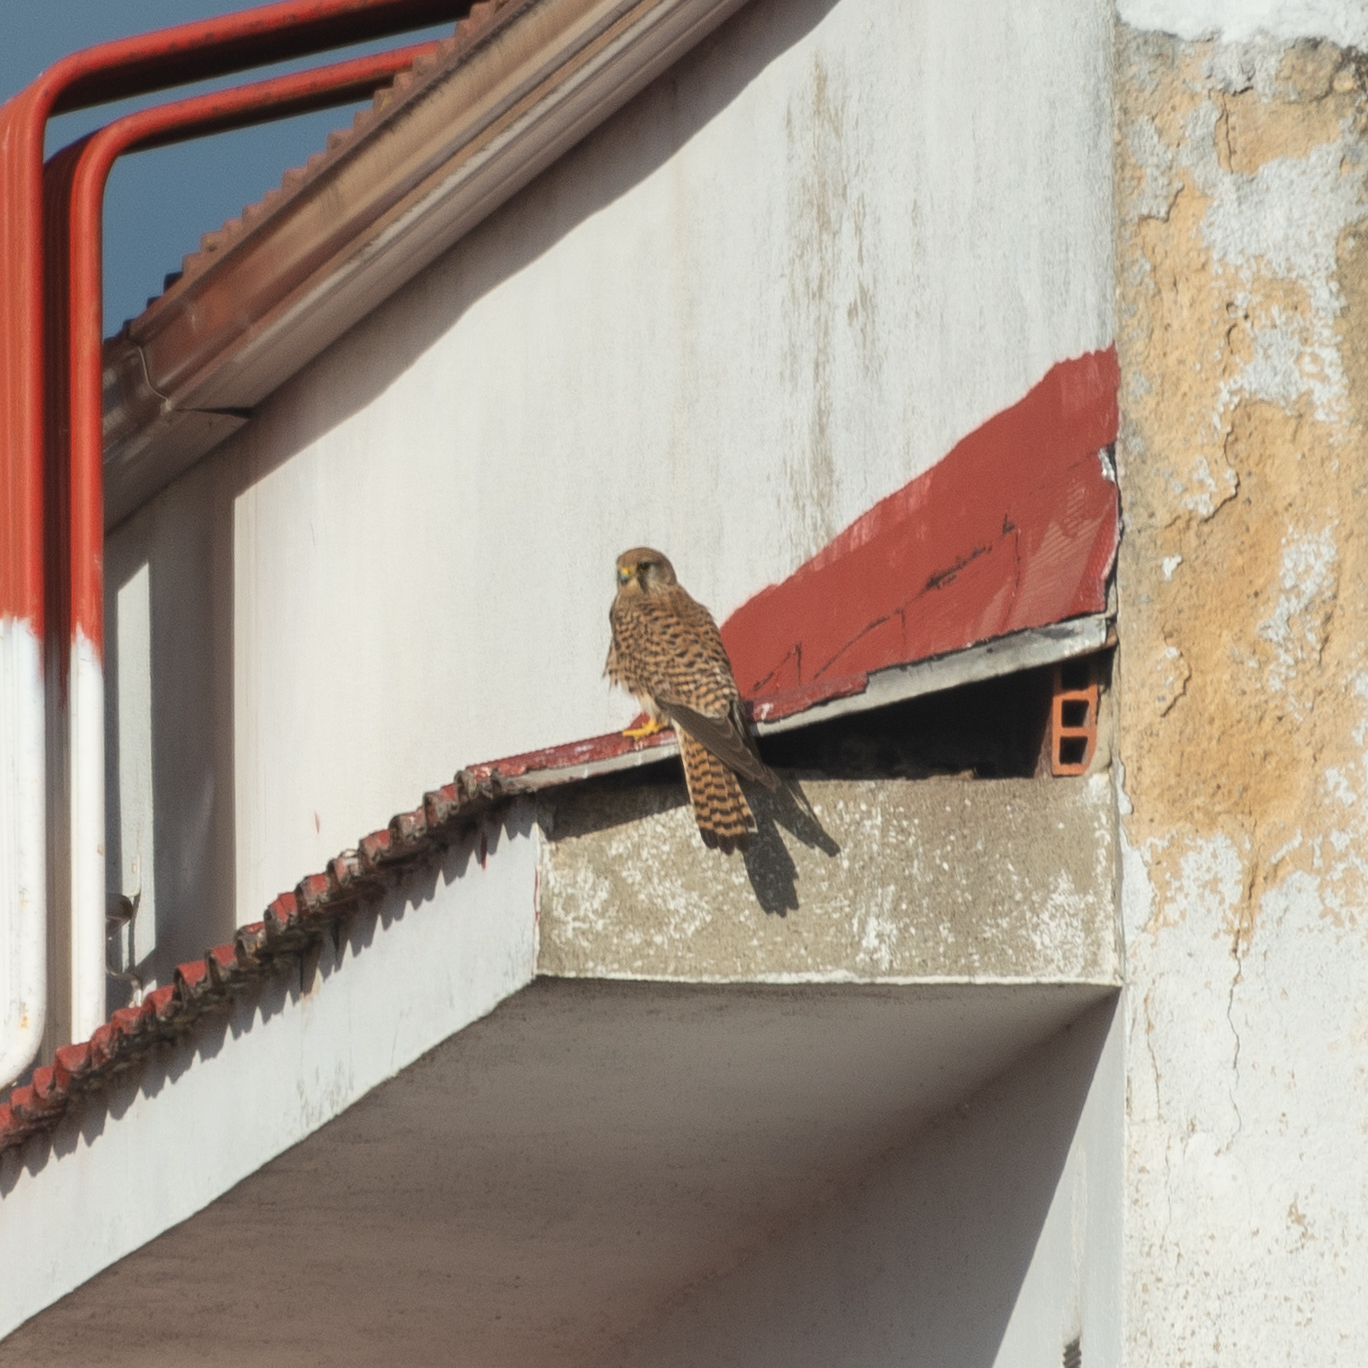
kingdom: Animalia
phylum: Chordata
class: Aves
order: Falconiformes
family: Falconidae
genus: Falco
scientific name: Falco tinnunculus
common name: Common kestrel
